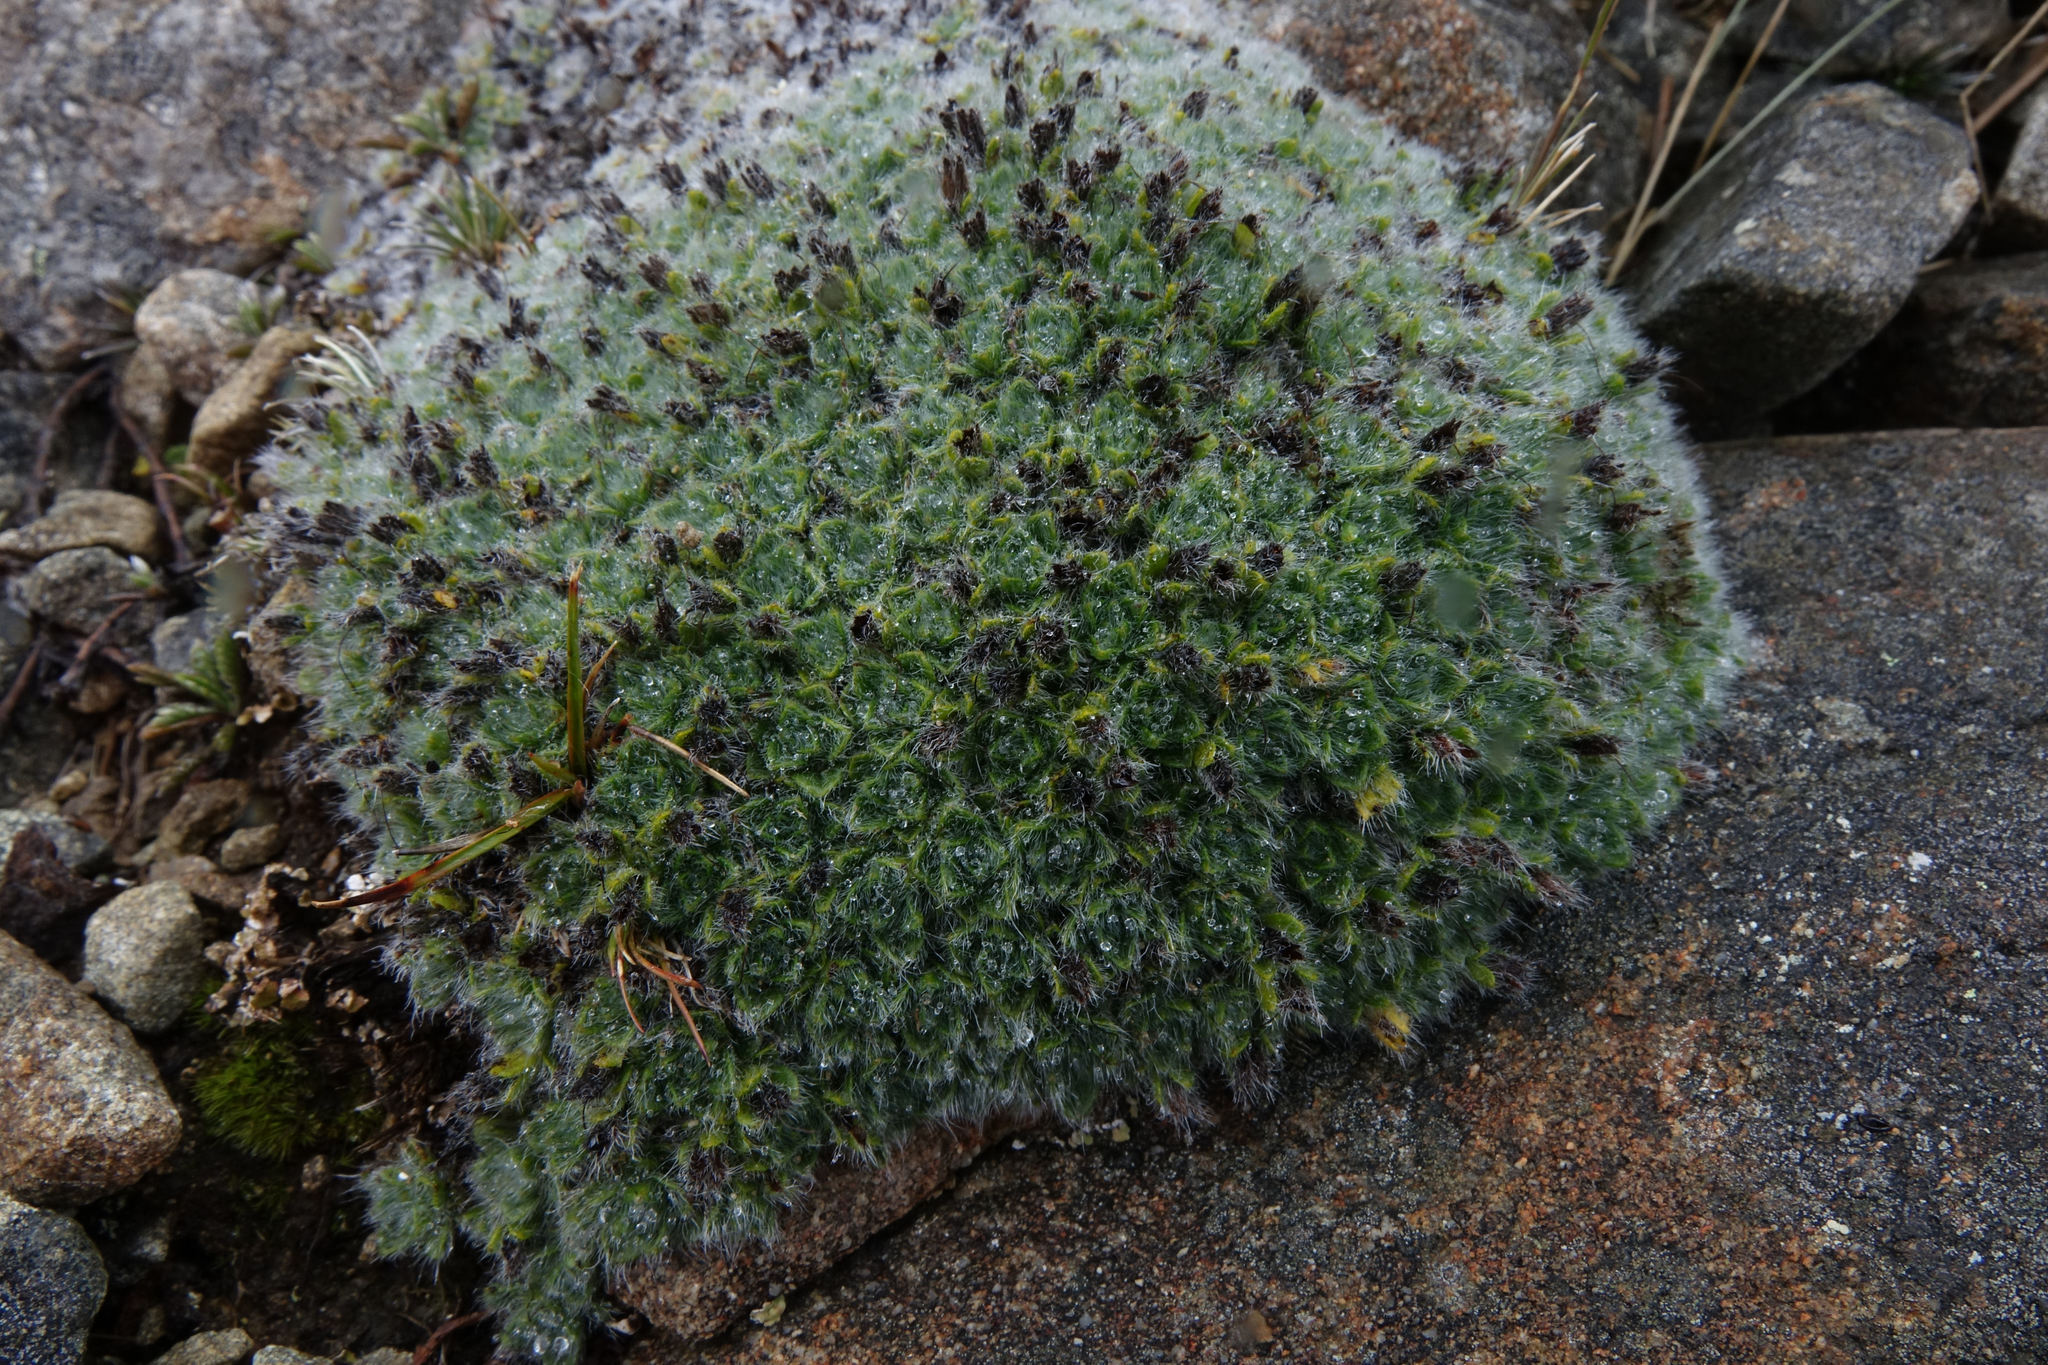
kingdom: Plantae
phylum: Tracheophyta
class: Magnoliopsida
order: Boraginales
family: Boraginaceae
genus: Myosotis
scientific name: Myosotis pulvinaris
